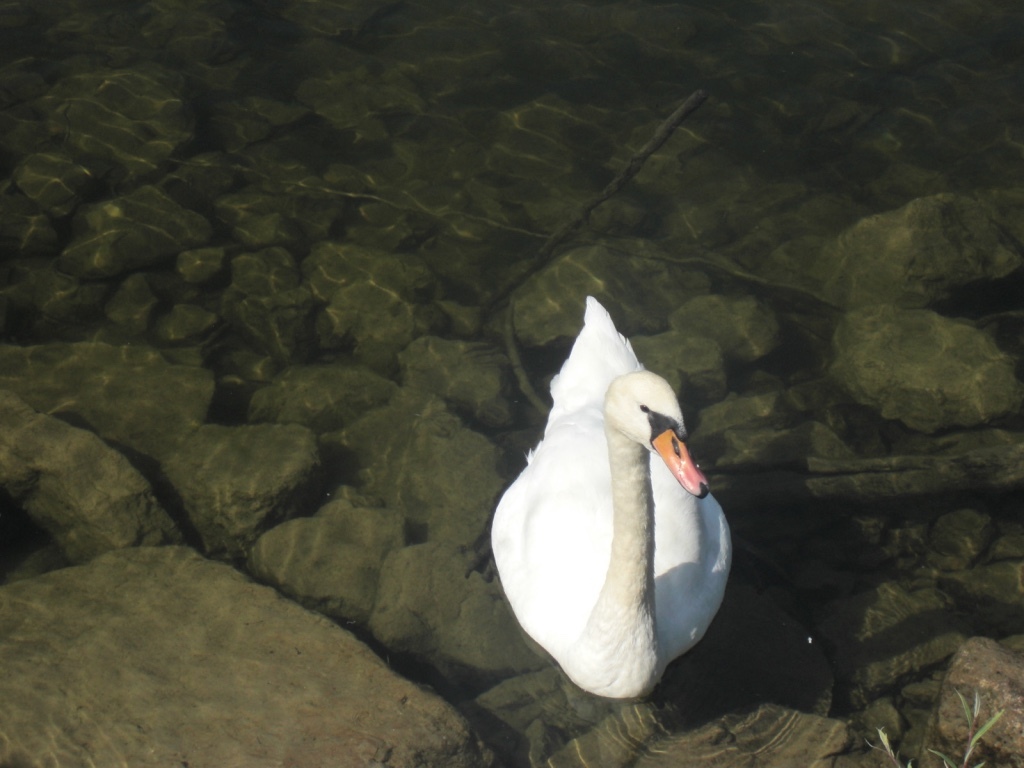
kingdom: Animalia
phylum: Chordata
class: Aves
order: Anseriformes
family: Anatidae
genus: Cygnus
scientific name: Cygnus olor
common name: Mute swan
